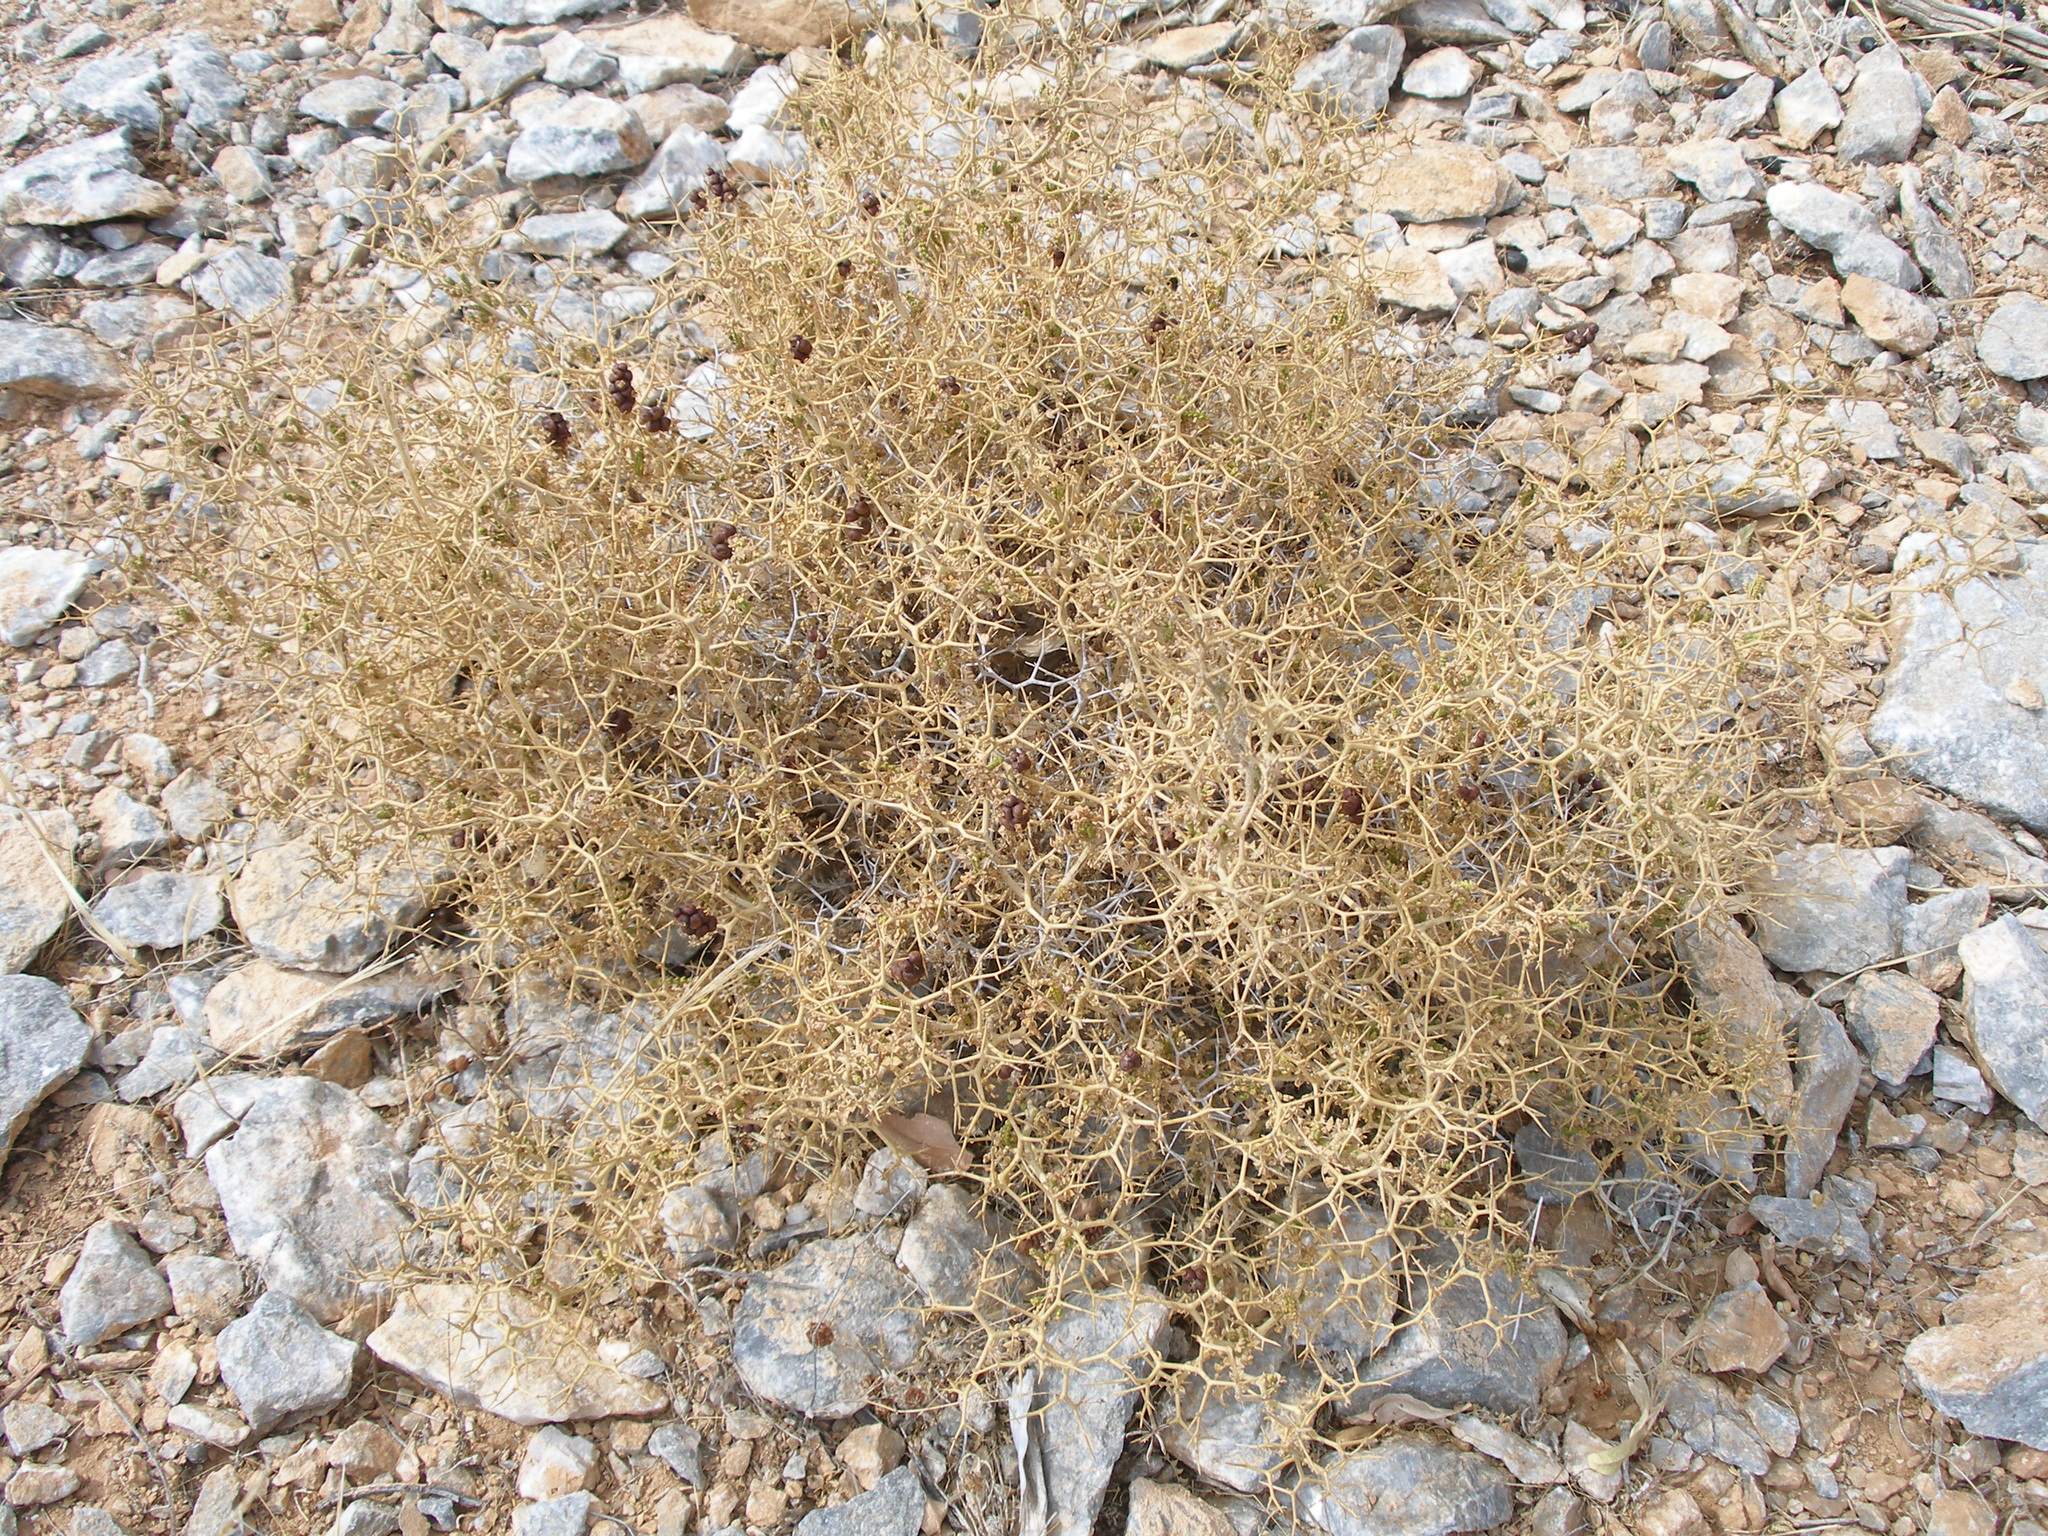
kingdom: Plantae
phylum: Tracheophyta
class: Magnoliopsida
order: Rosales
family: Rosaceae
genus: Sarcopoterium
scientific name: Sarcopoterium spinosum
